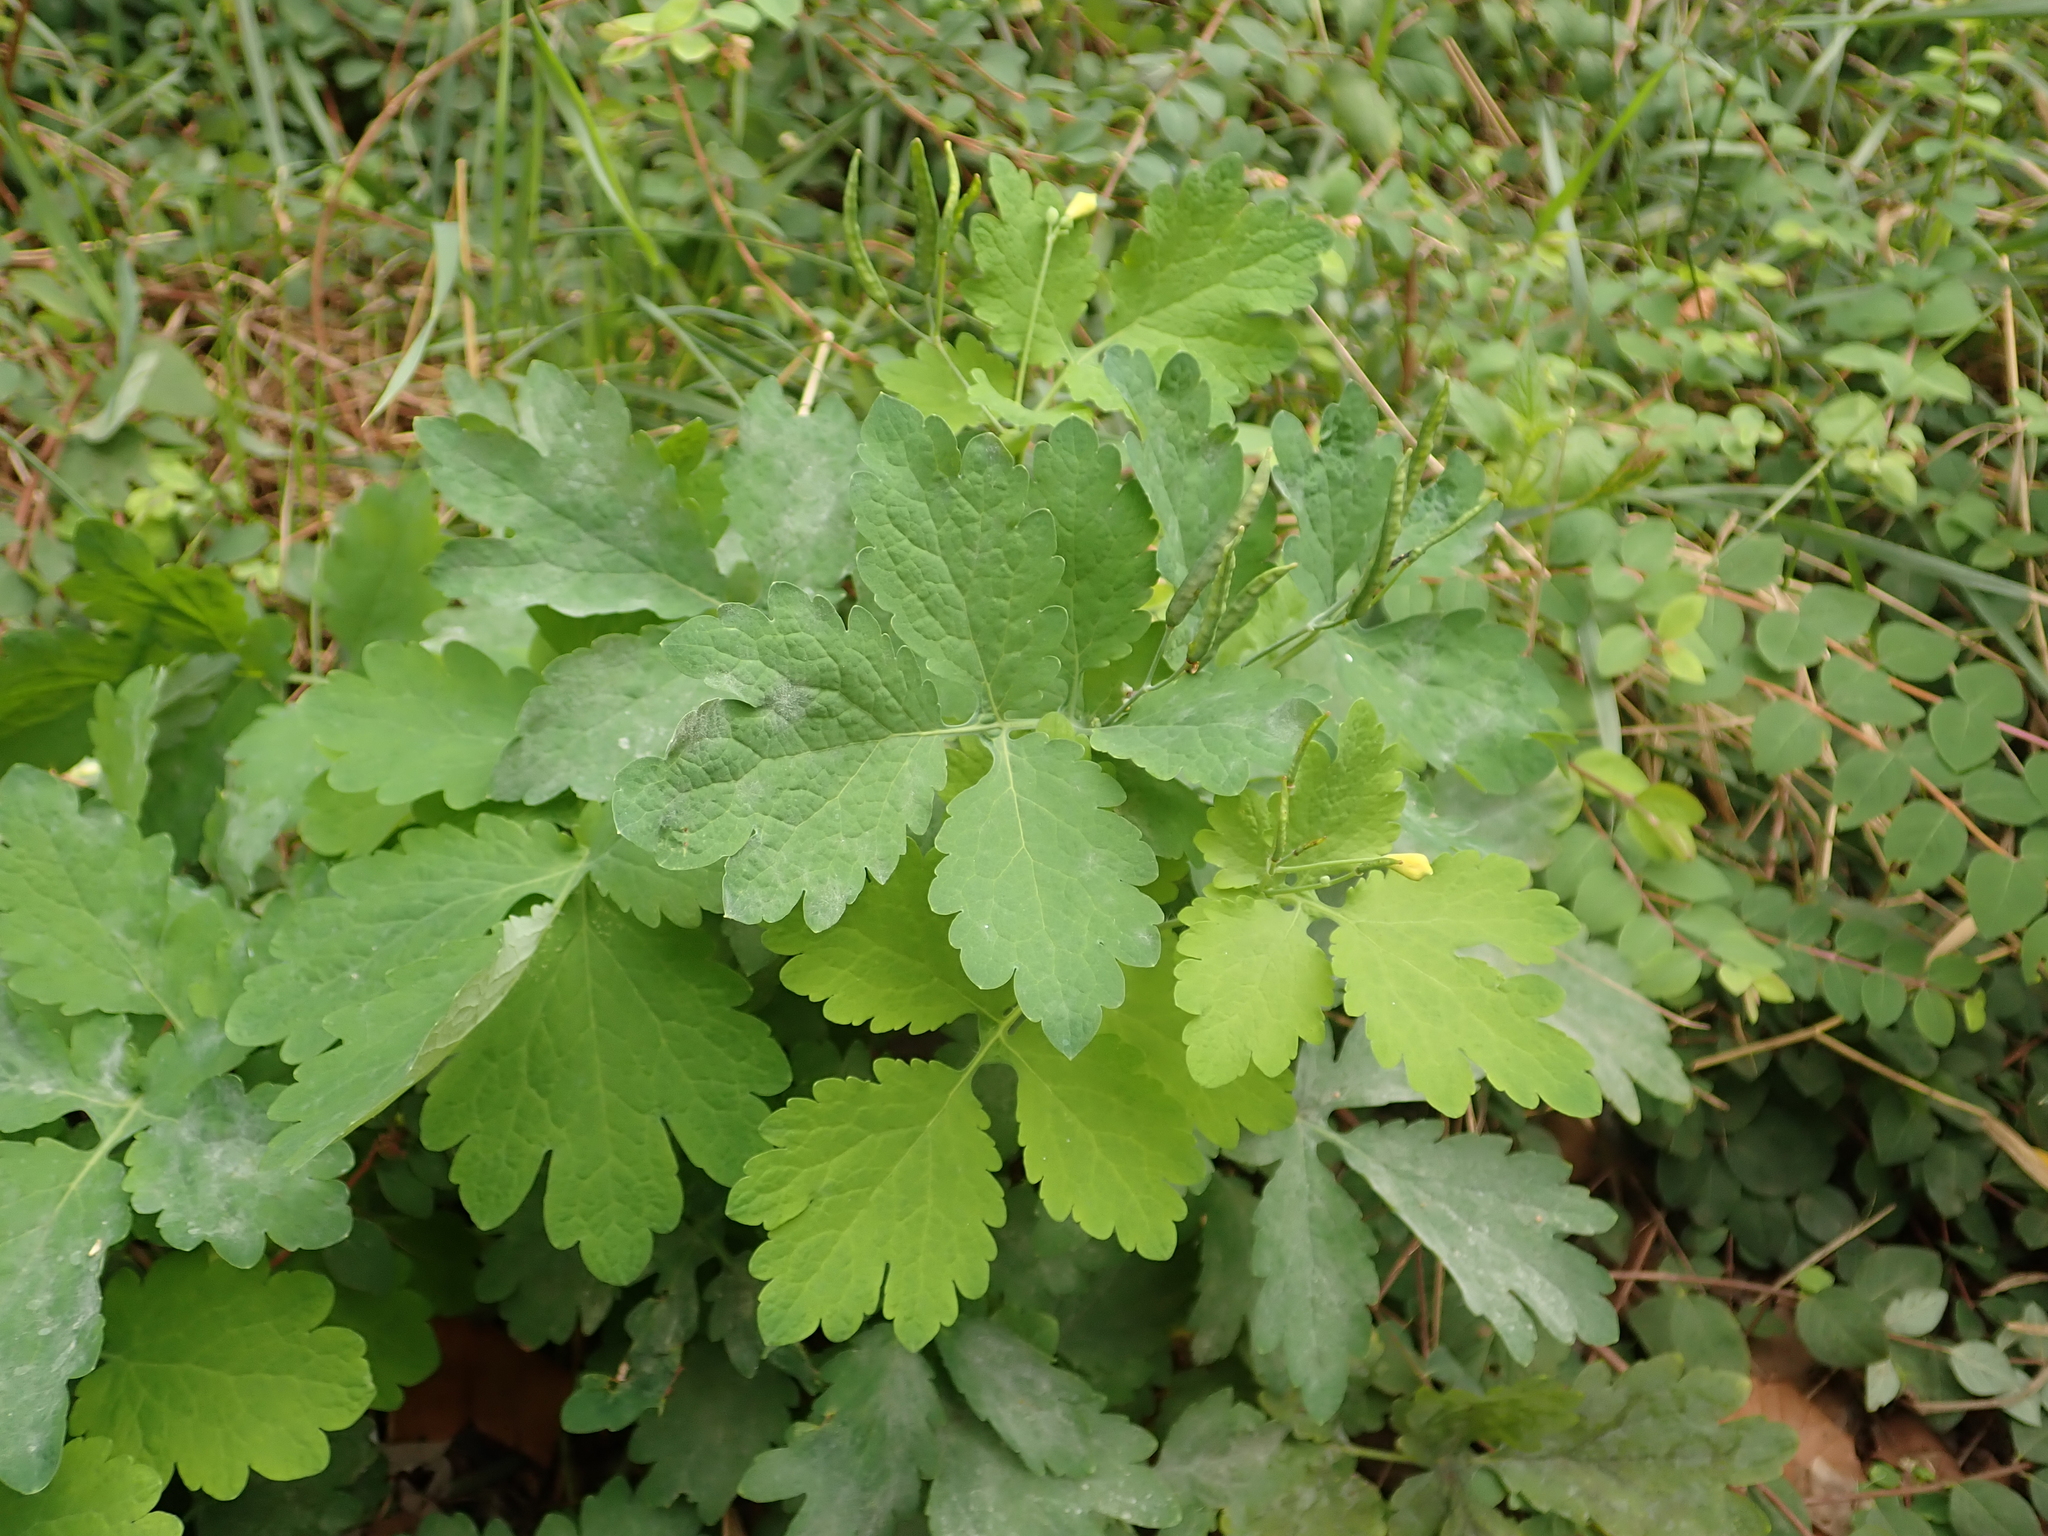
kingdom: Plantae
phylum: Tracheophyta
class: Magnoliopsida
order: Ranunculales
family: Papaveraceae
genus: Chelidonium
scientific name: Chelidonium majus
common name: Greater celandine
